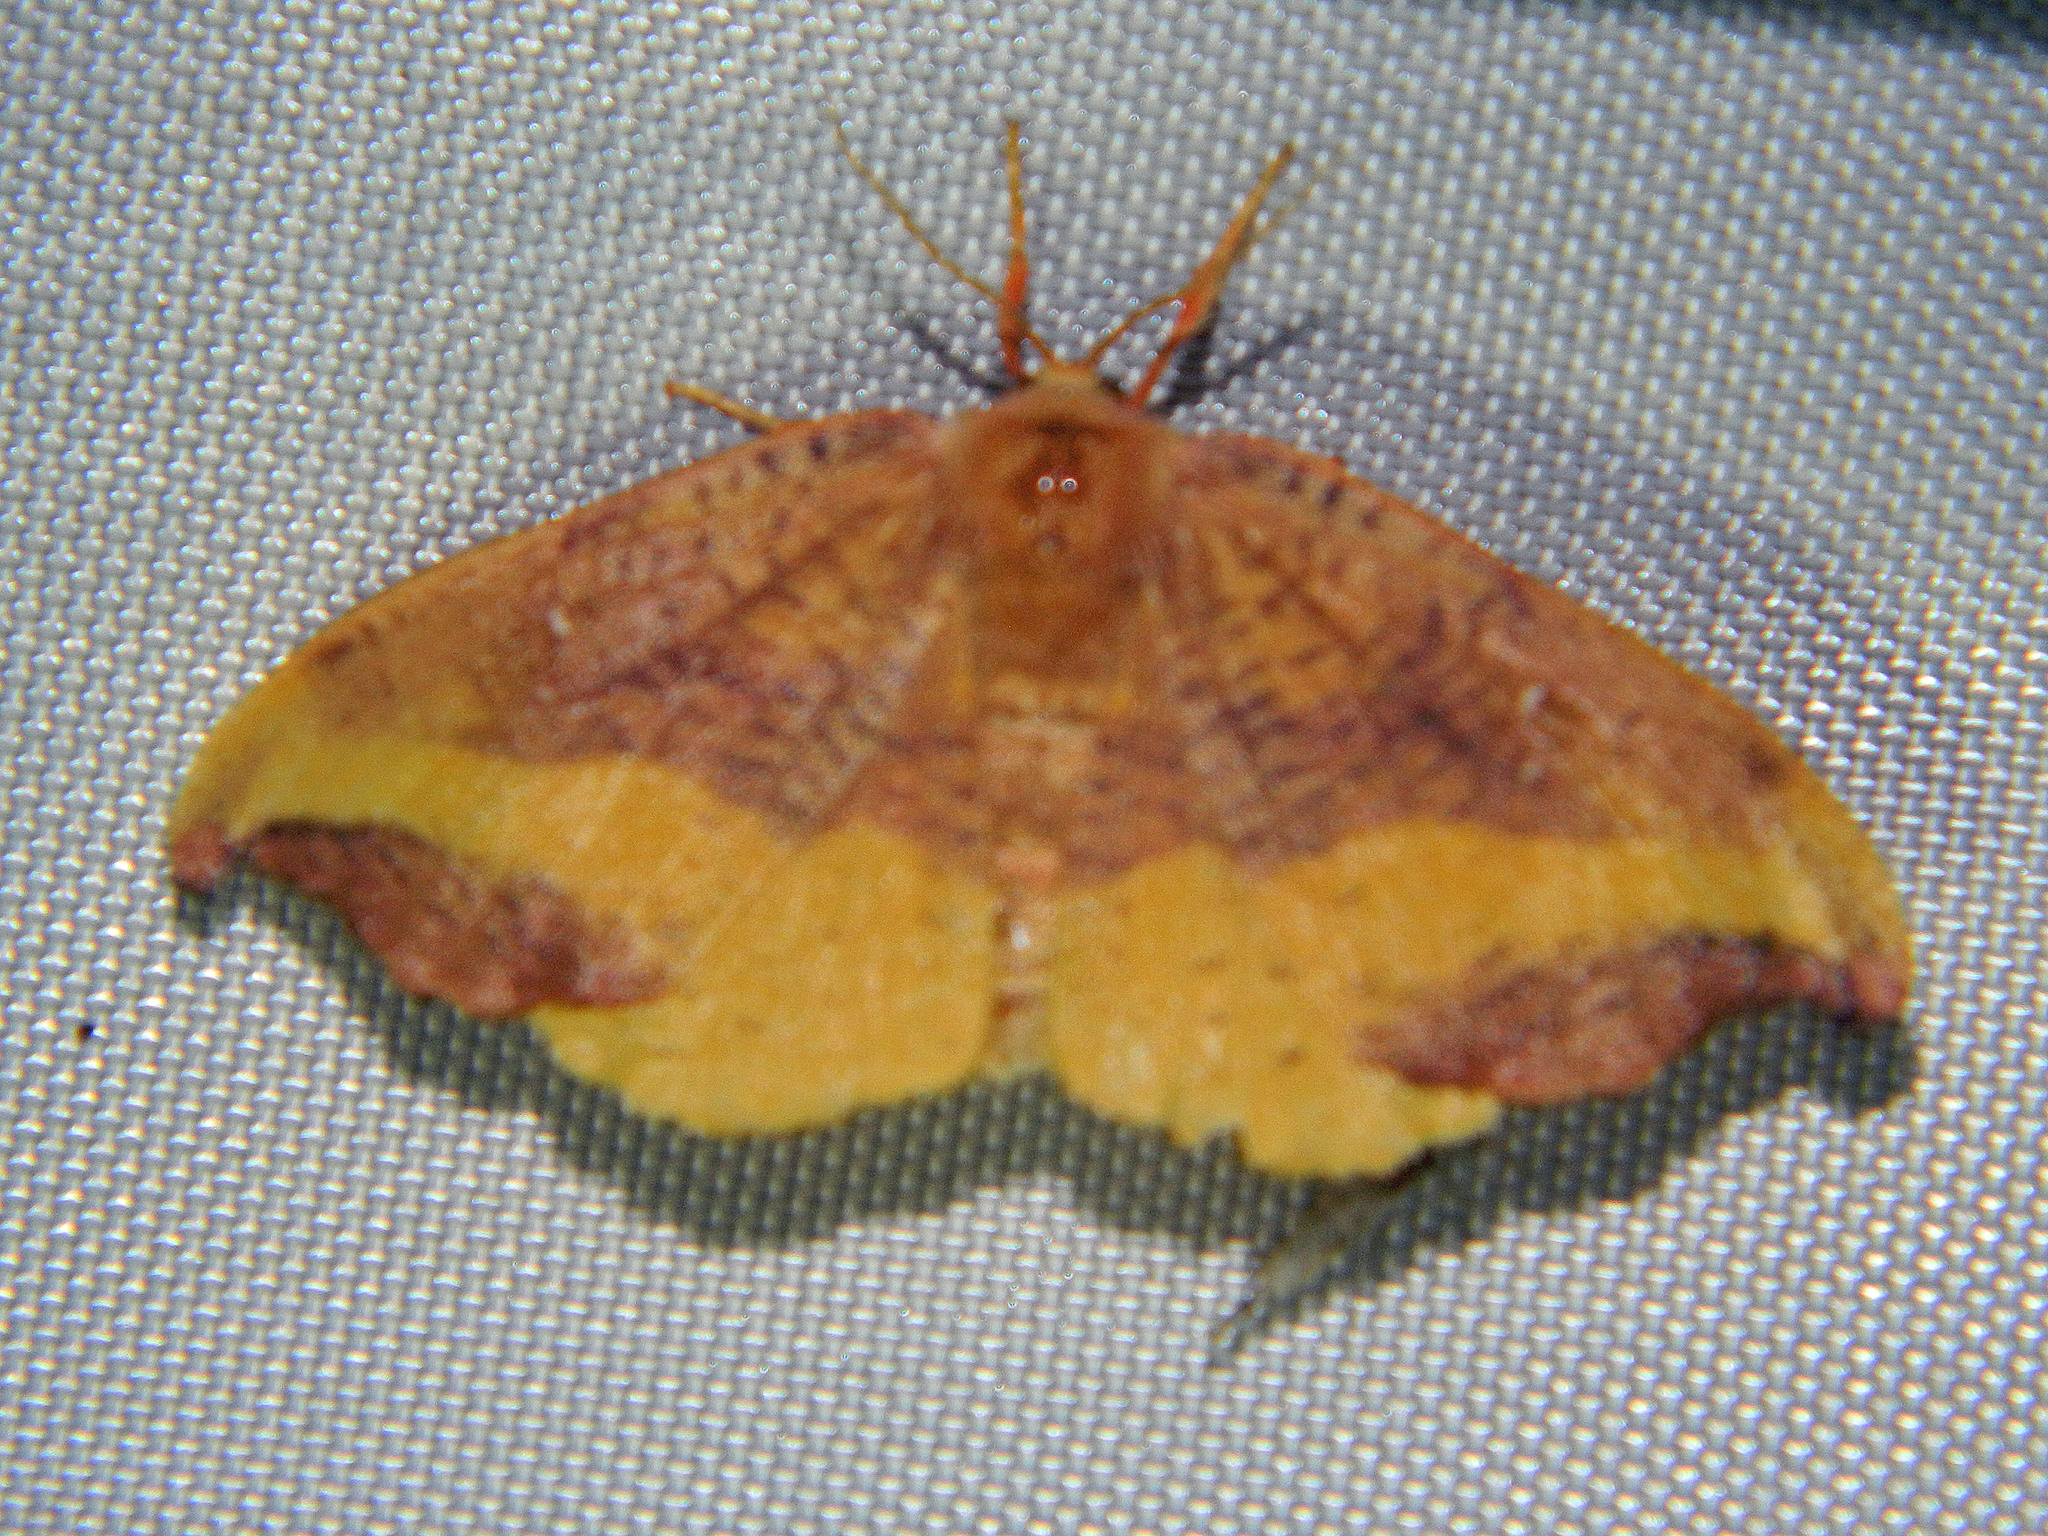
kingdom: Animalia
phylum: Arthropoda
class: Insecta
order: Lepidoptera
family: Drepanidae
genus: Oreta
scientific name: Oreta rosea
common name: Rose hooktip
